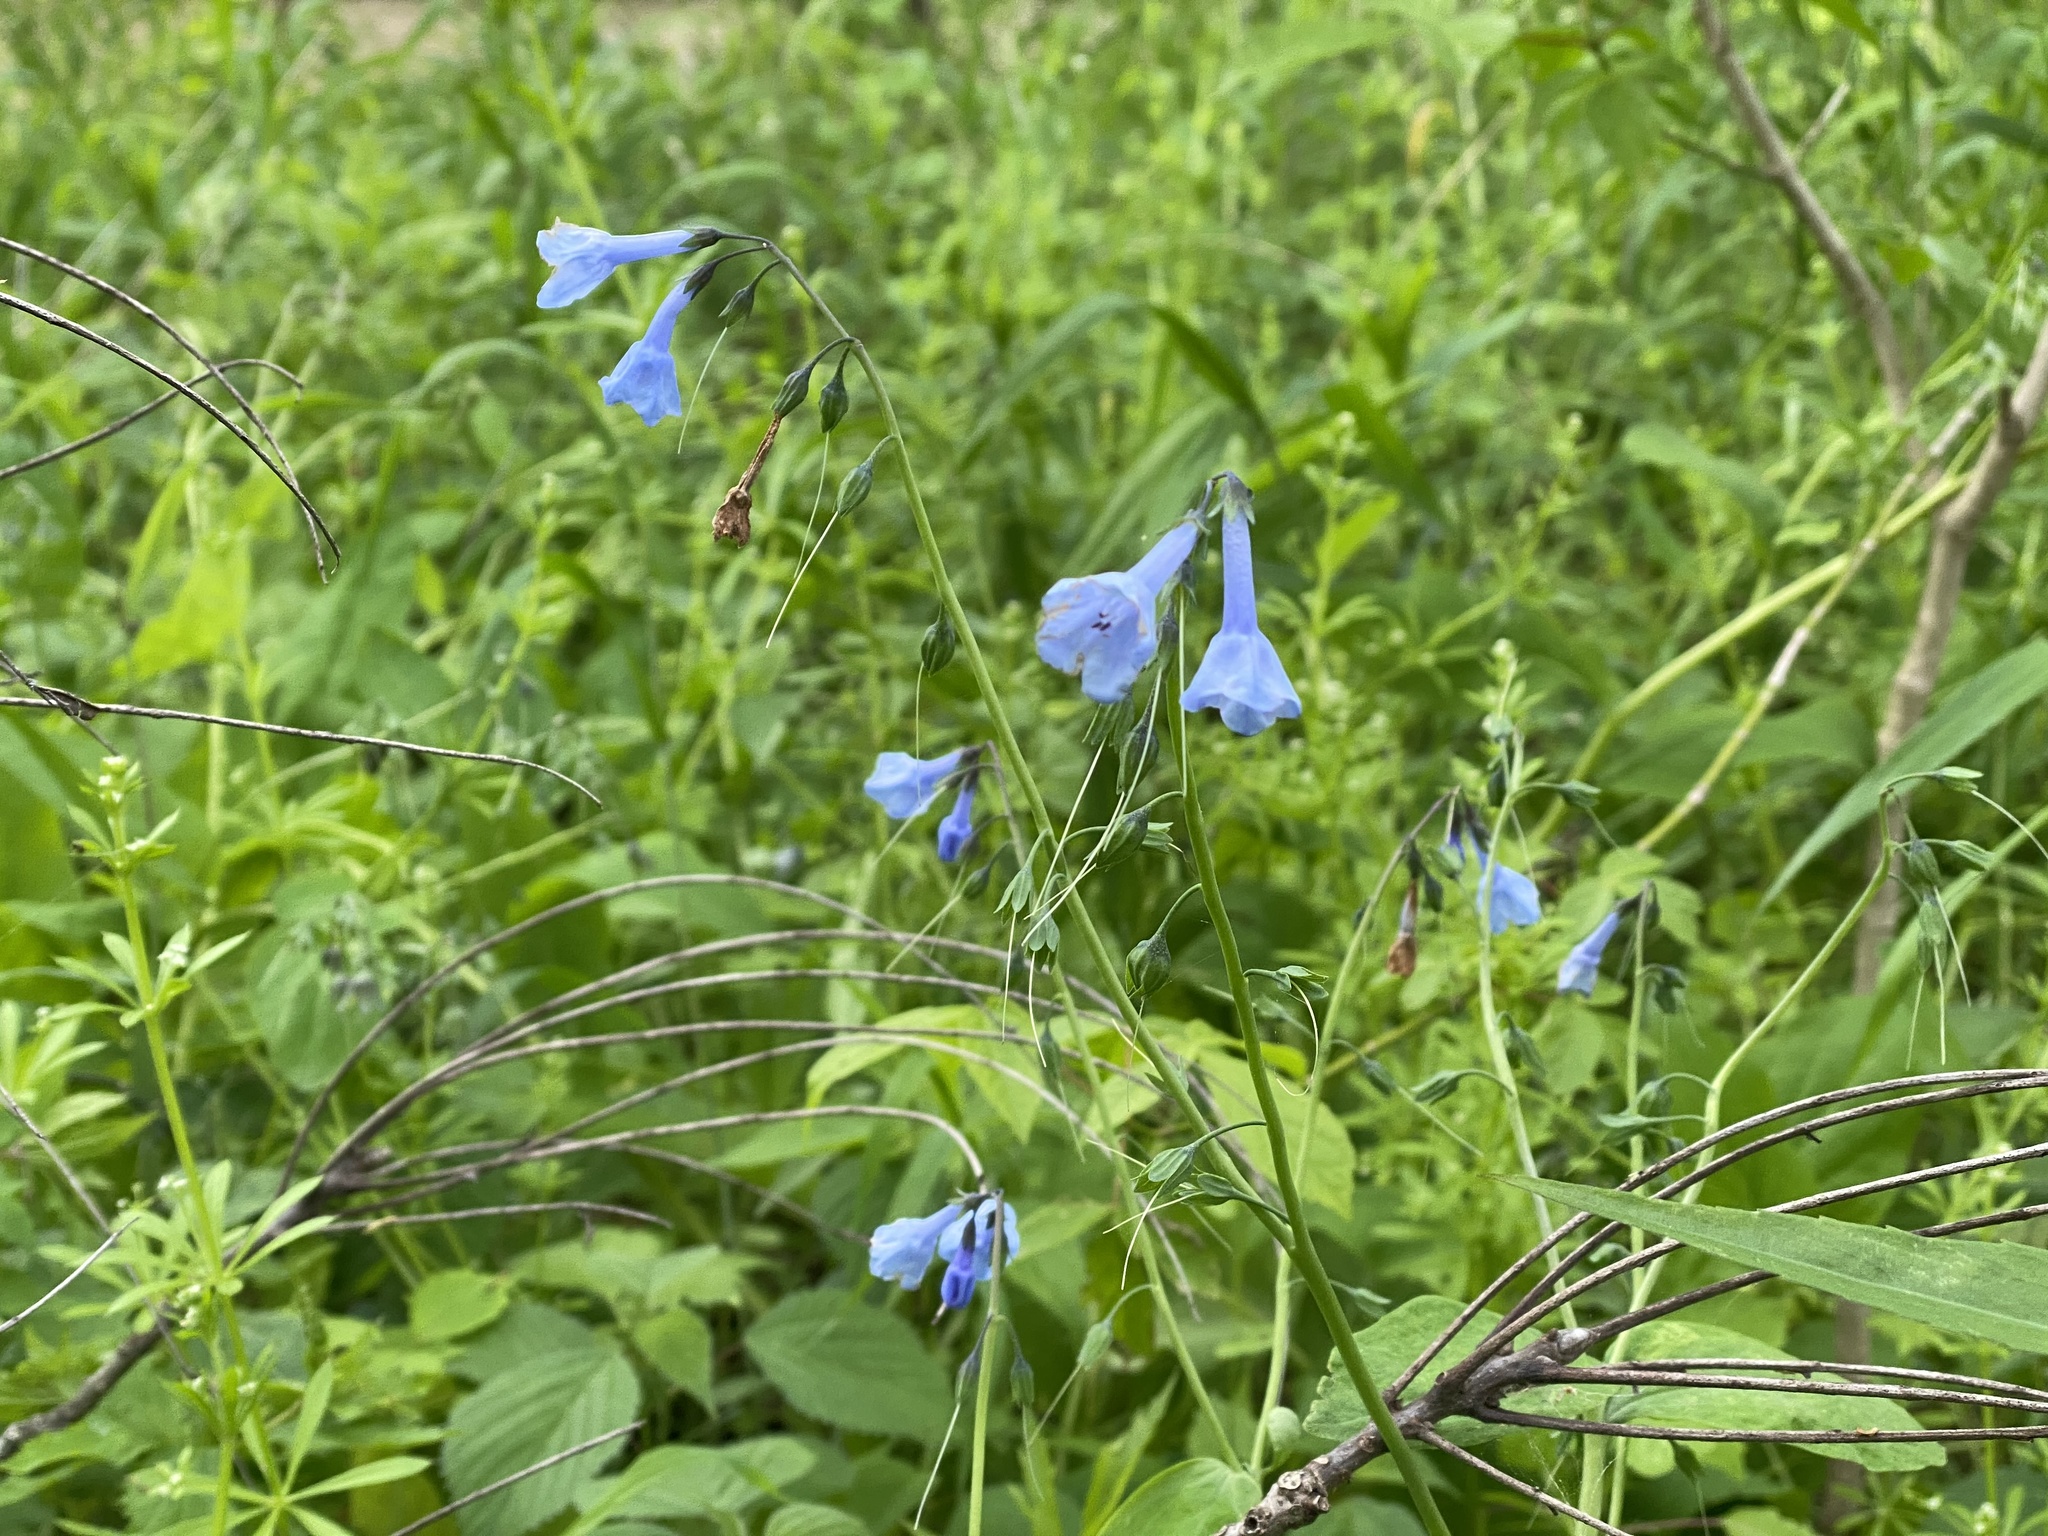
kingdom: Plantae
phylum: Tracheophyta
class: Magnoliopsida
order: Boraginales
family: Boraginaceae
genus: Mertensia
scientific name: Mertensia virginica
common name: Virginia bluebells
